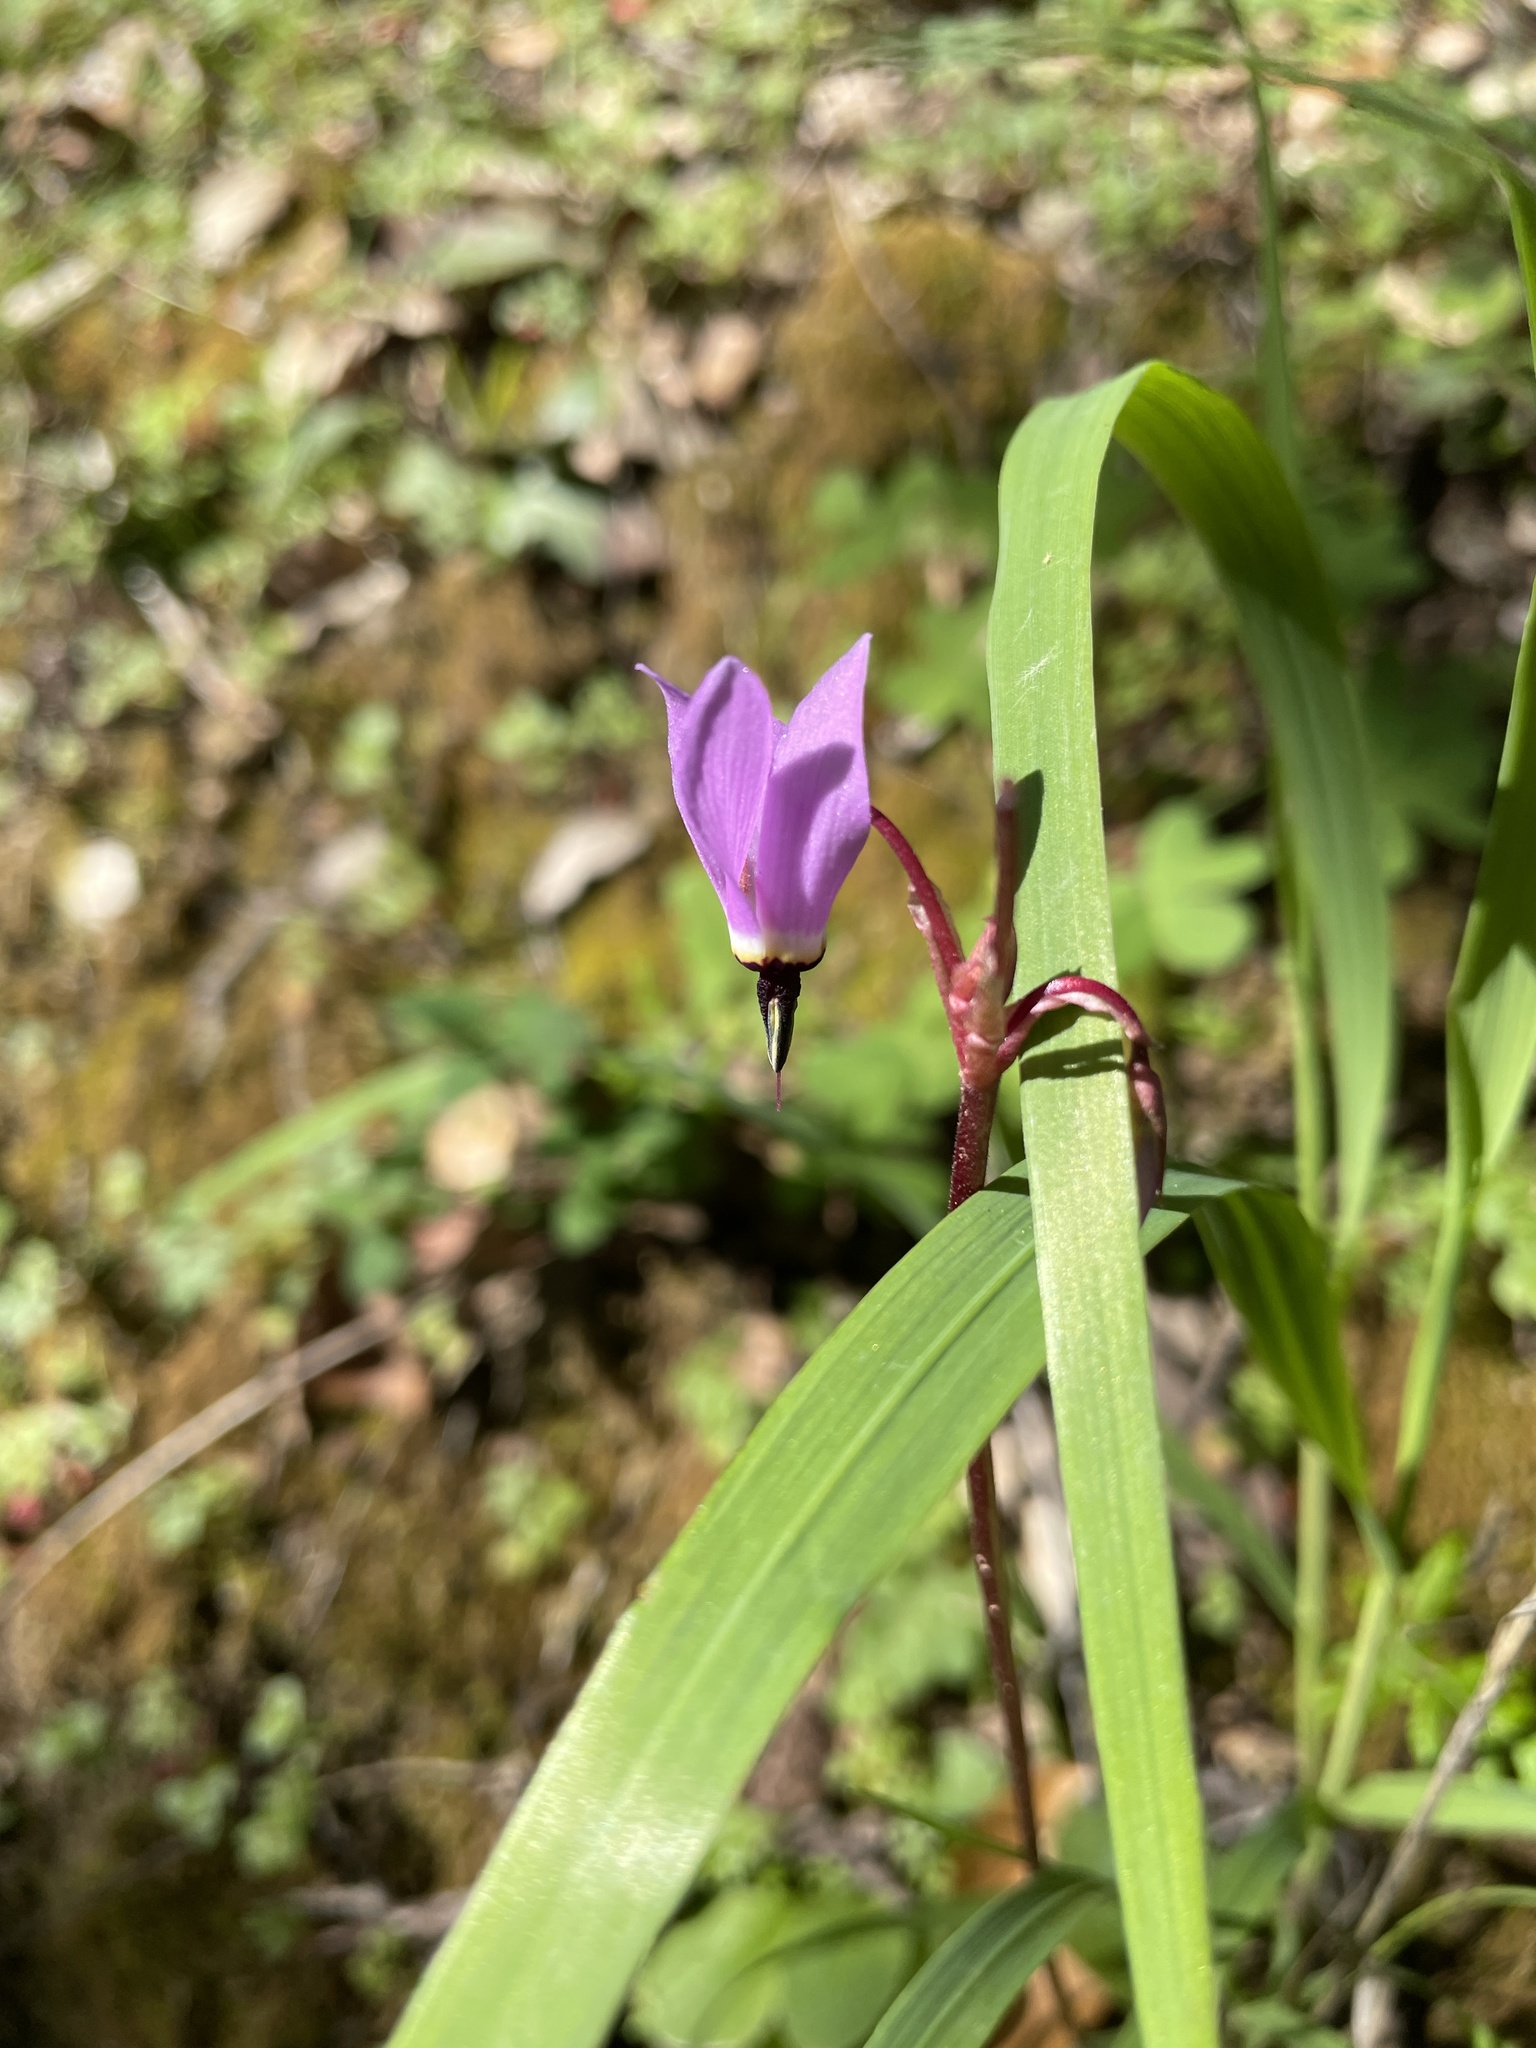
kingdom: Plantae
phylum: Tracheophyta
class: Magnoliopsida
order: Ericales
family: Primulaceae
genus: Dodecatheon
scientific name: Dodecatheon hendersonii
